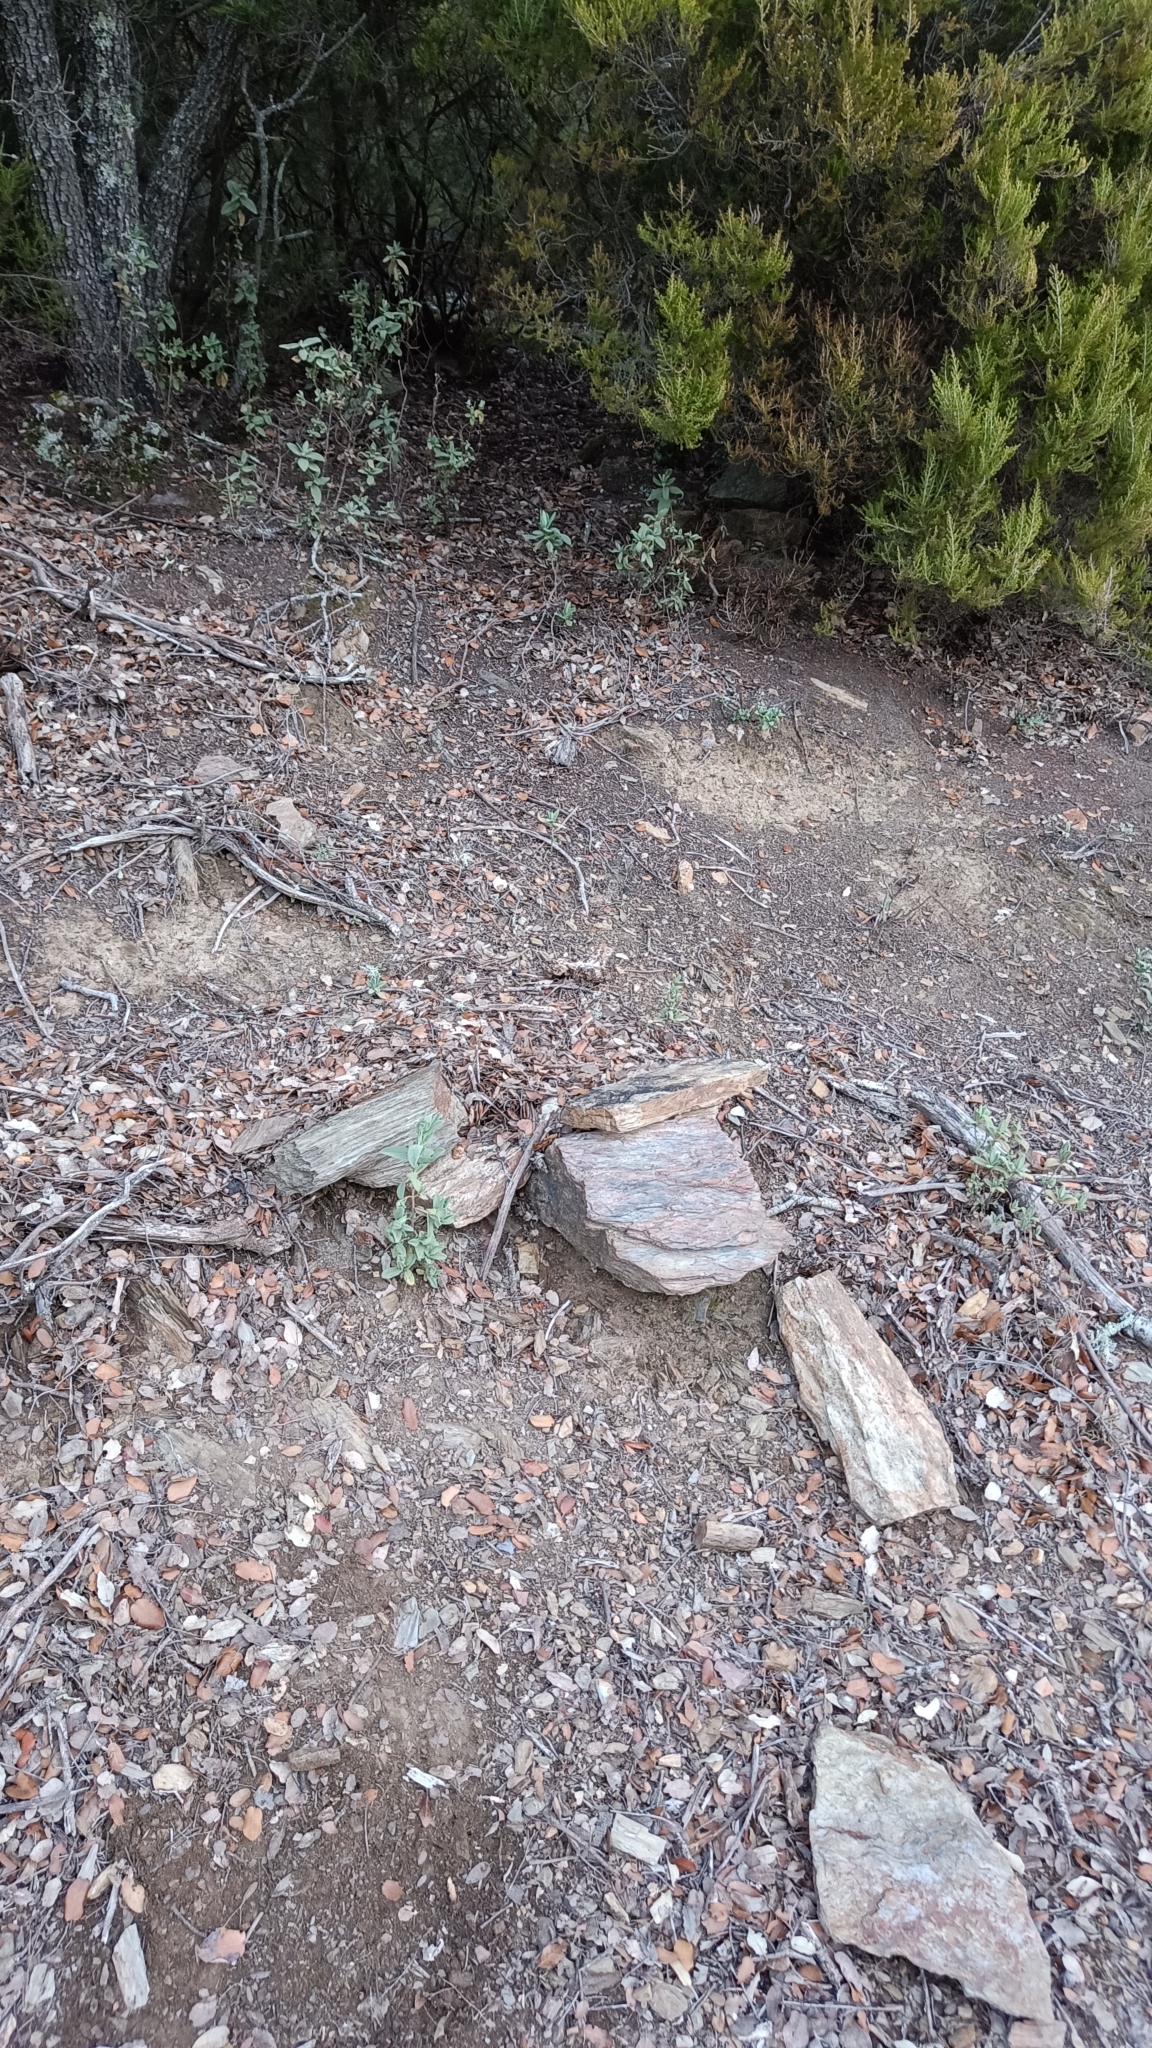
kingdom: Animalia
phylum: Arthropoda
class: Arachnida
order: Scorpiones
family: Buthidae
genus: Buthus
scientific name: Buthus pyrenaeus
